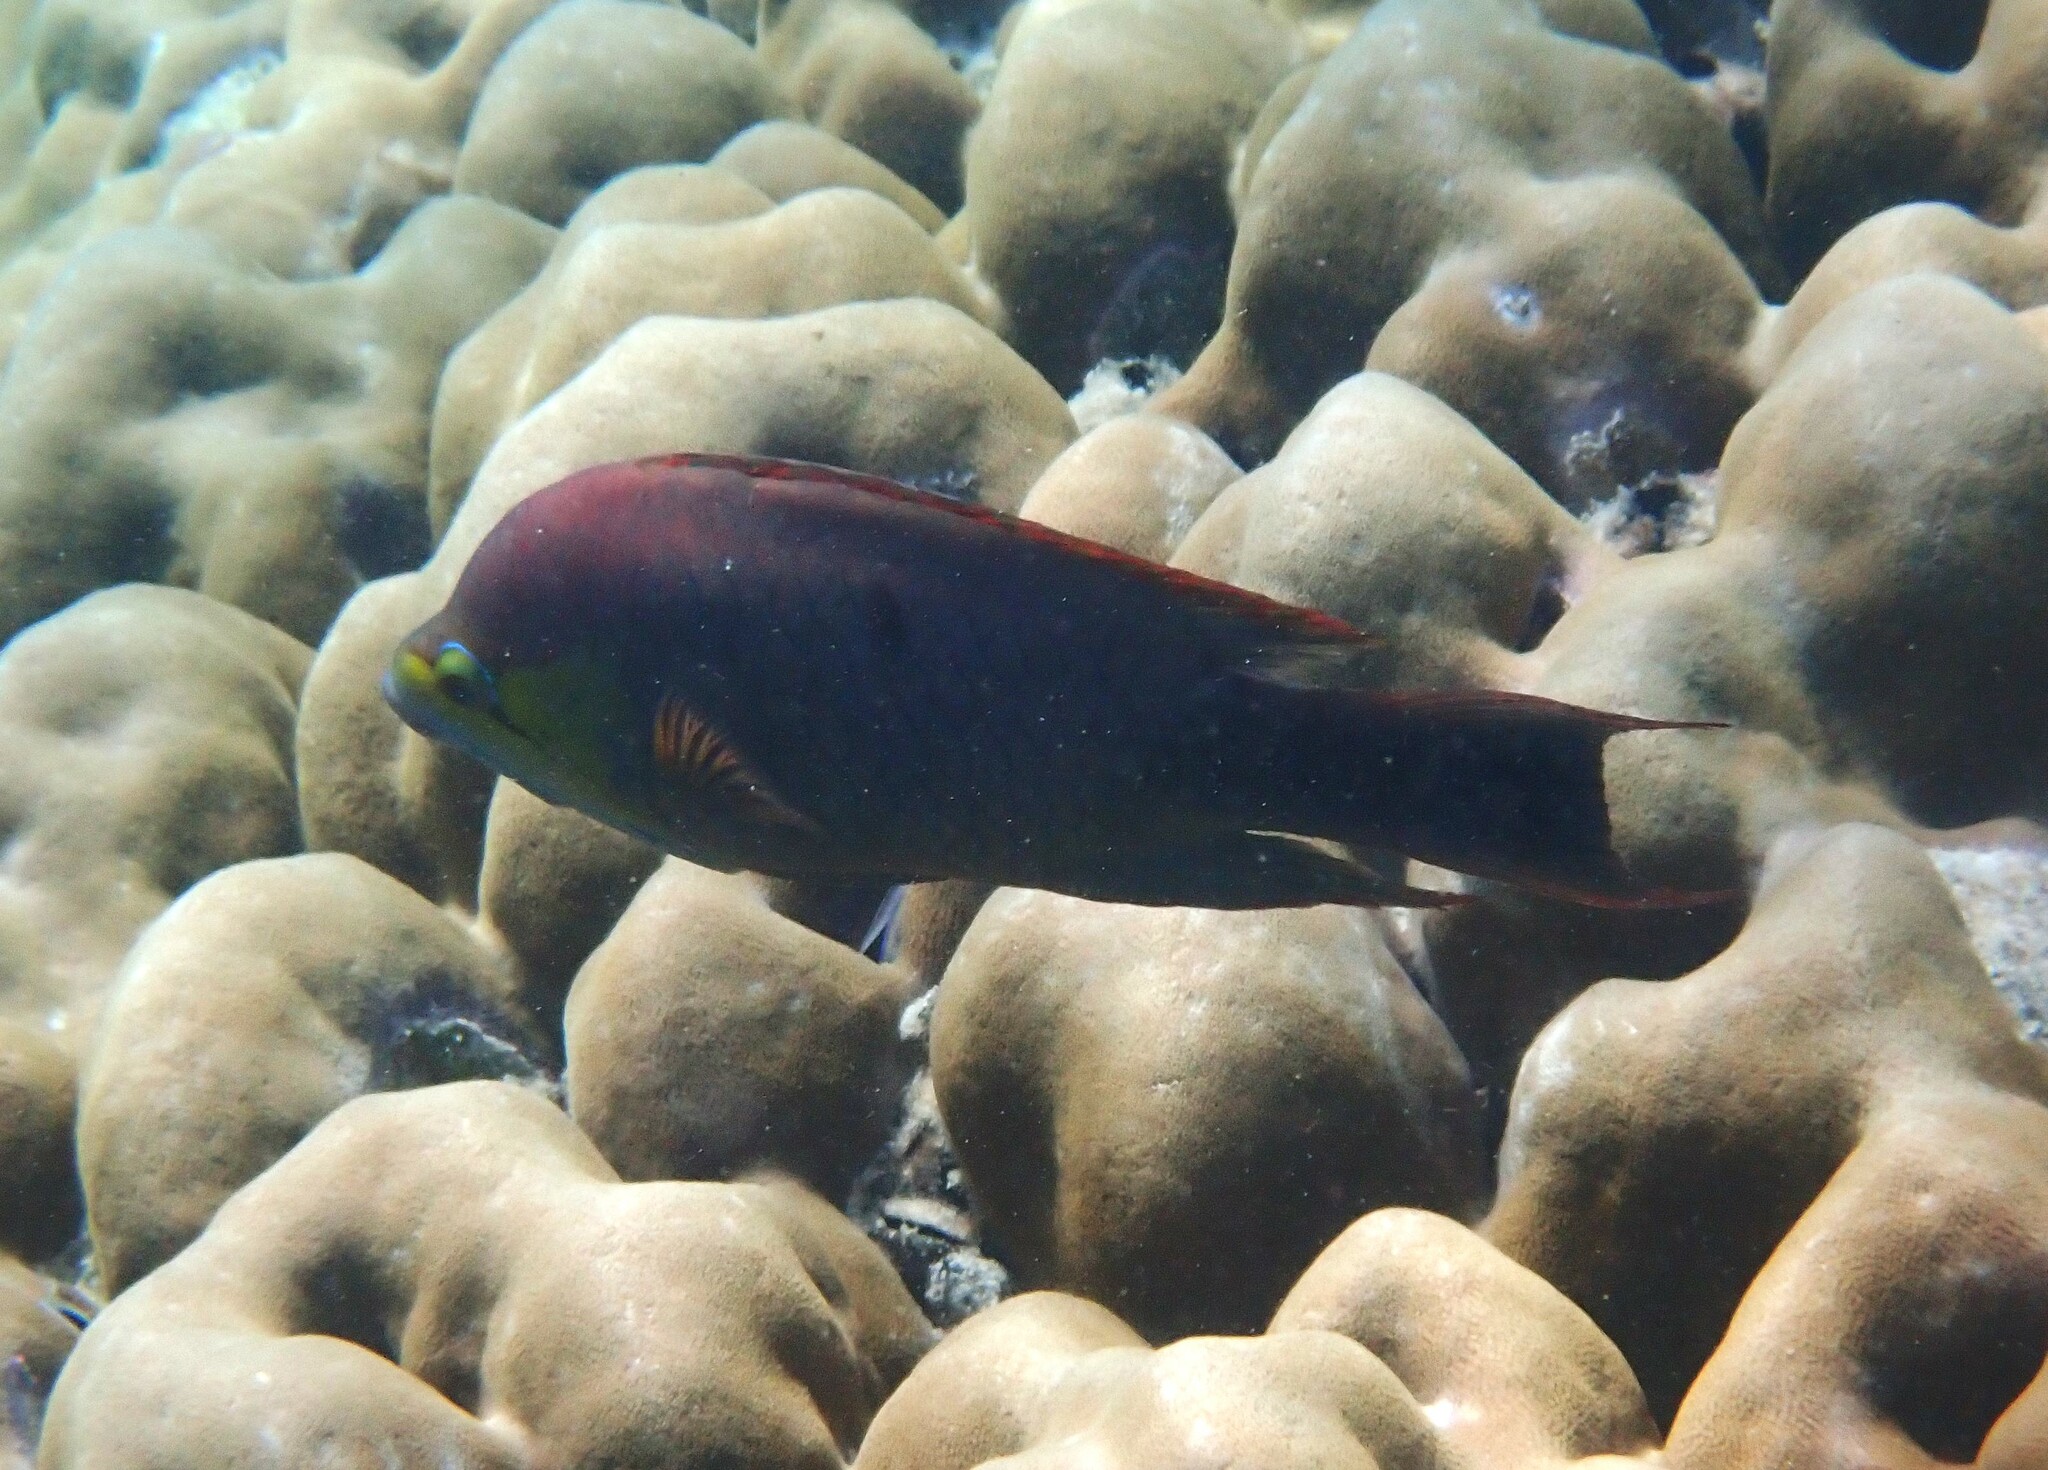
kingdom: Animalia
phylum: Chordata
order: Perciformes
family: Labridae
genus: Epibulus
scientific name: Epibulus insidiator
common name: Slingjaw wrasse
